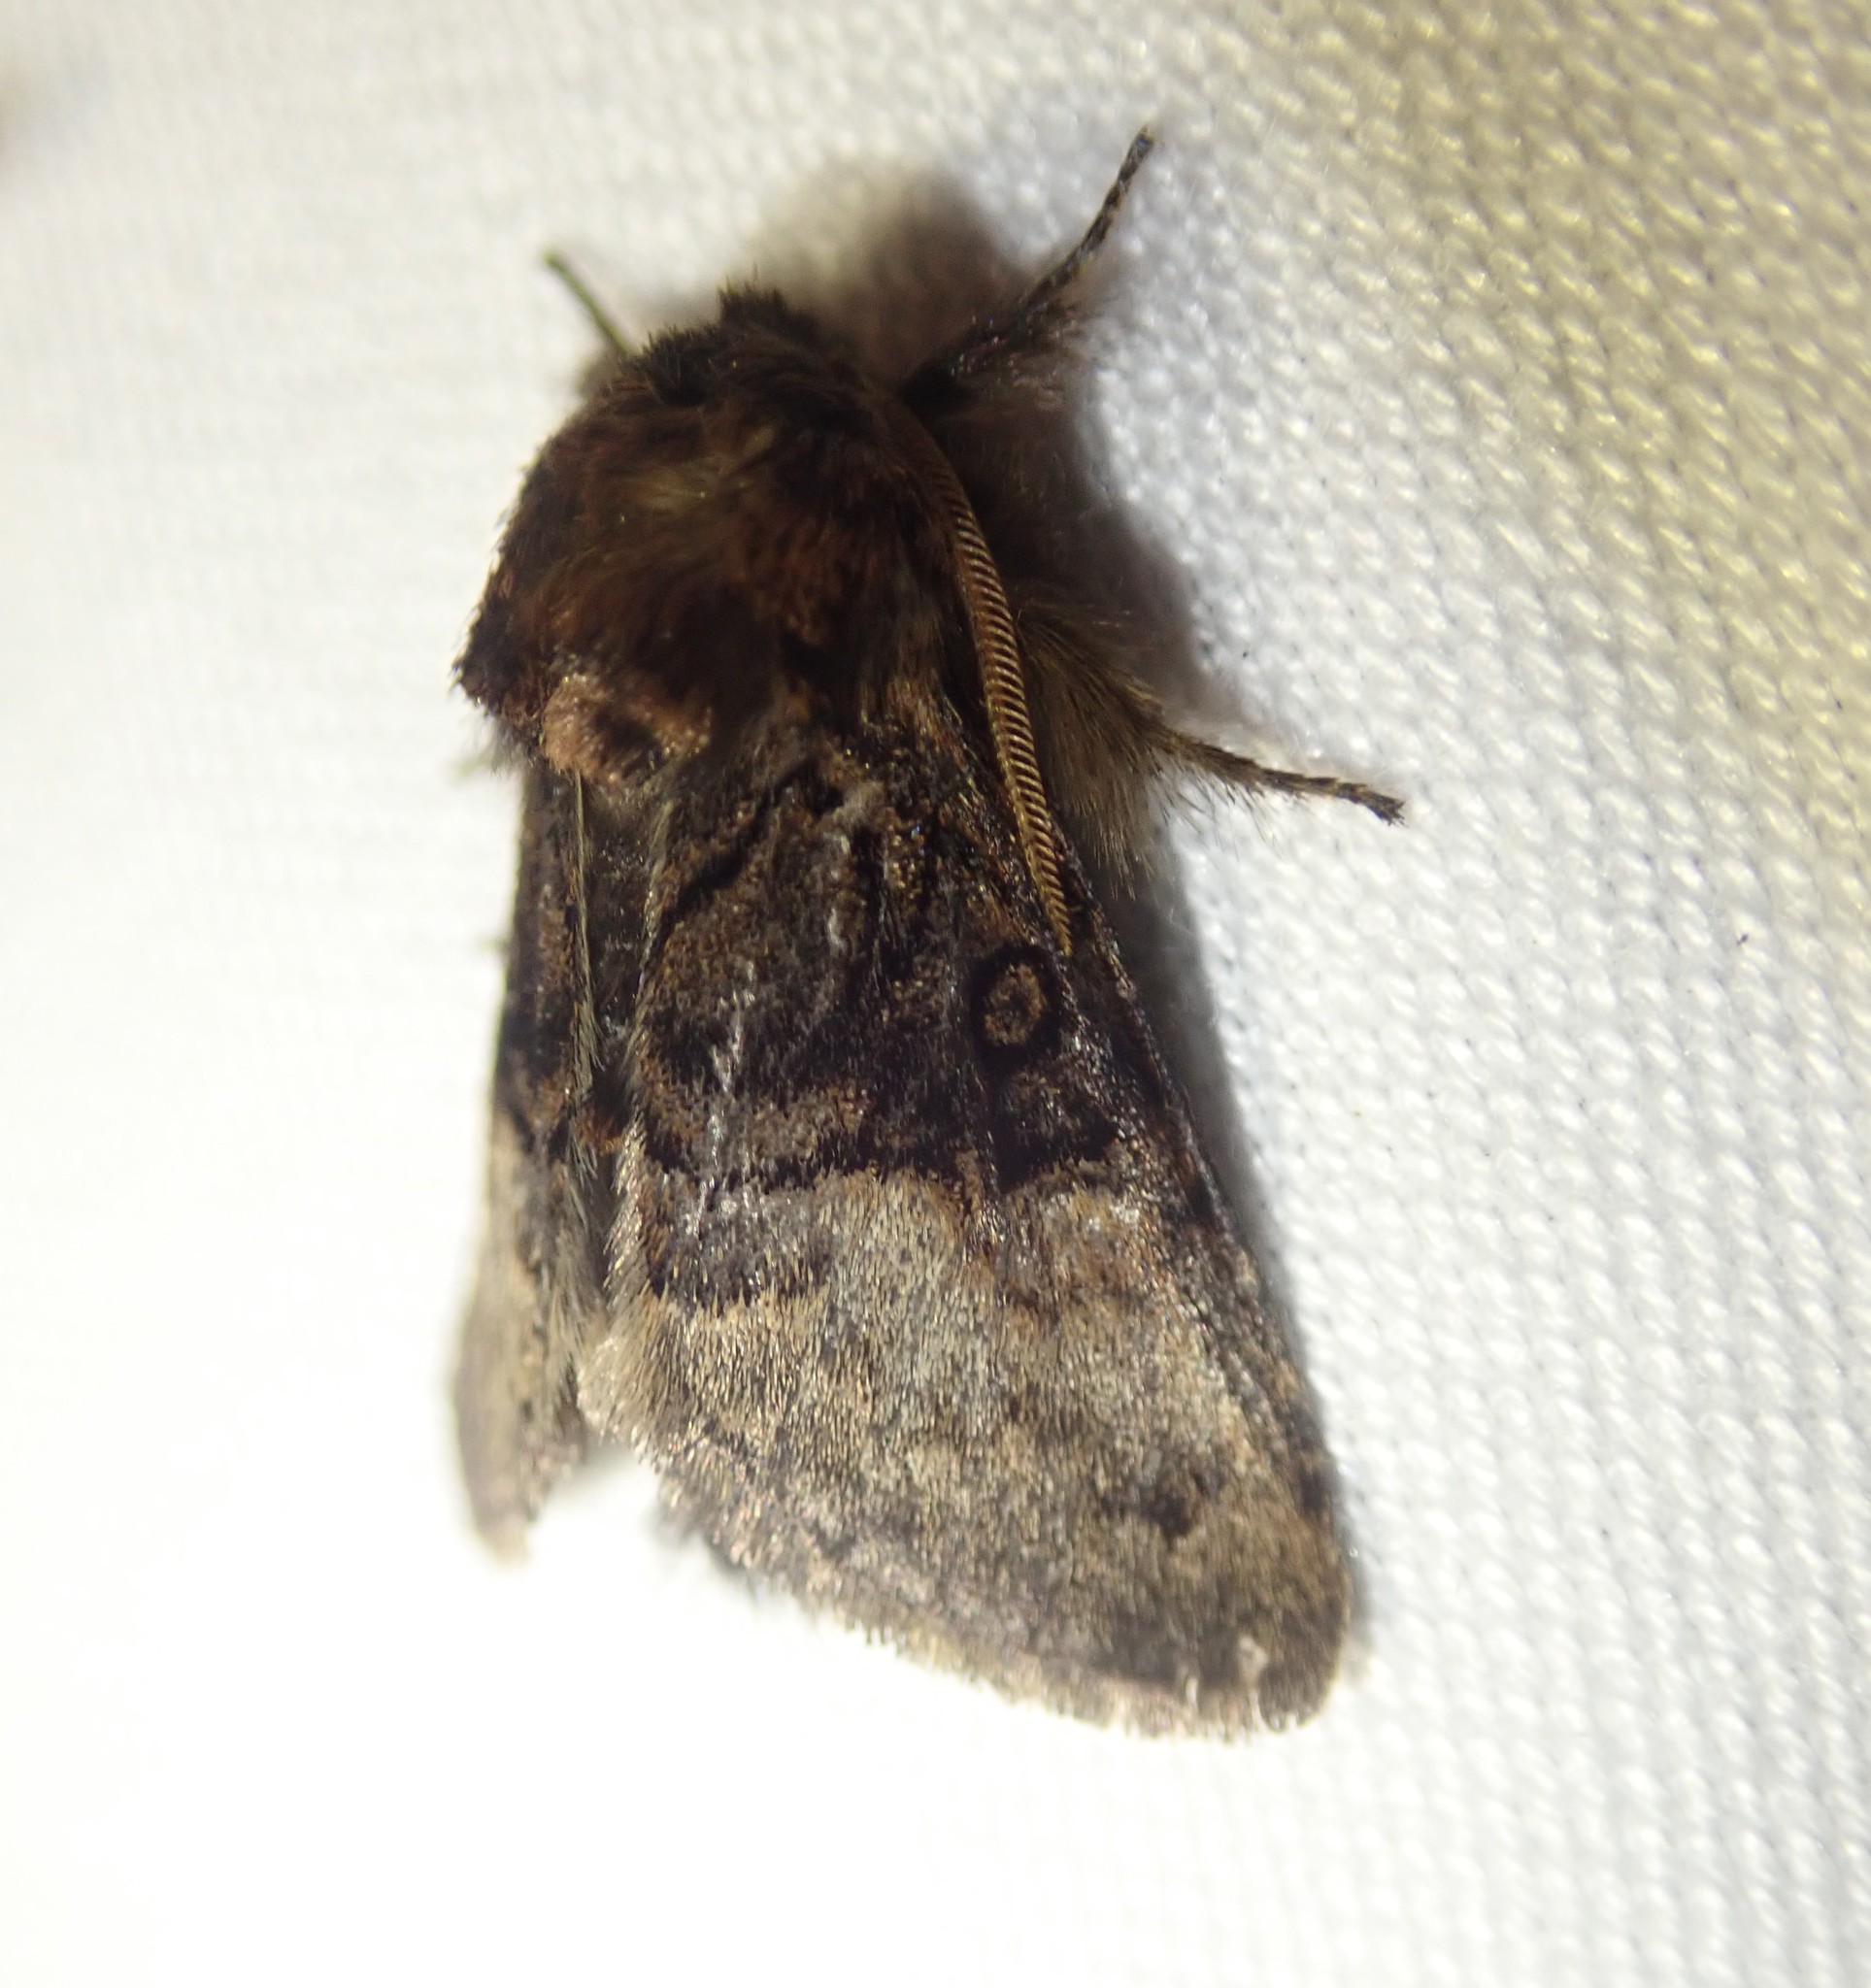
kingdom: Animalia
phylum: Arthropoda
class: Insecta
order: Lepidoptera
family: Noctuidae
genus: Colocasia
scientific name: Colocasia coryli
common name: Nut-tree tussock
